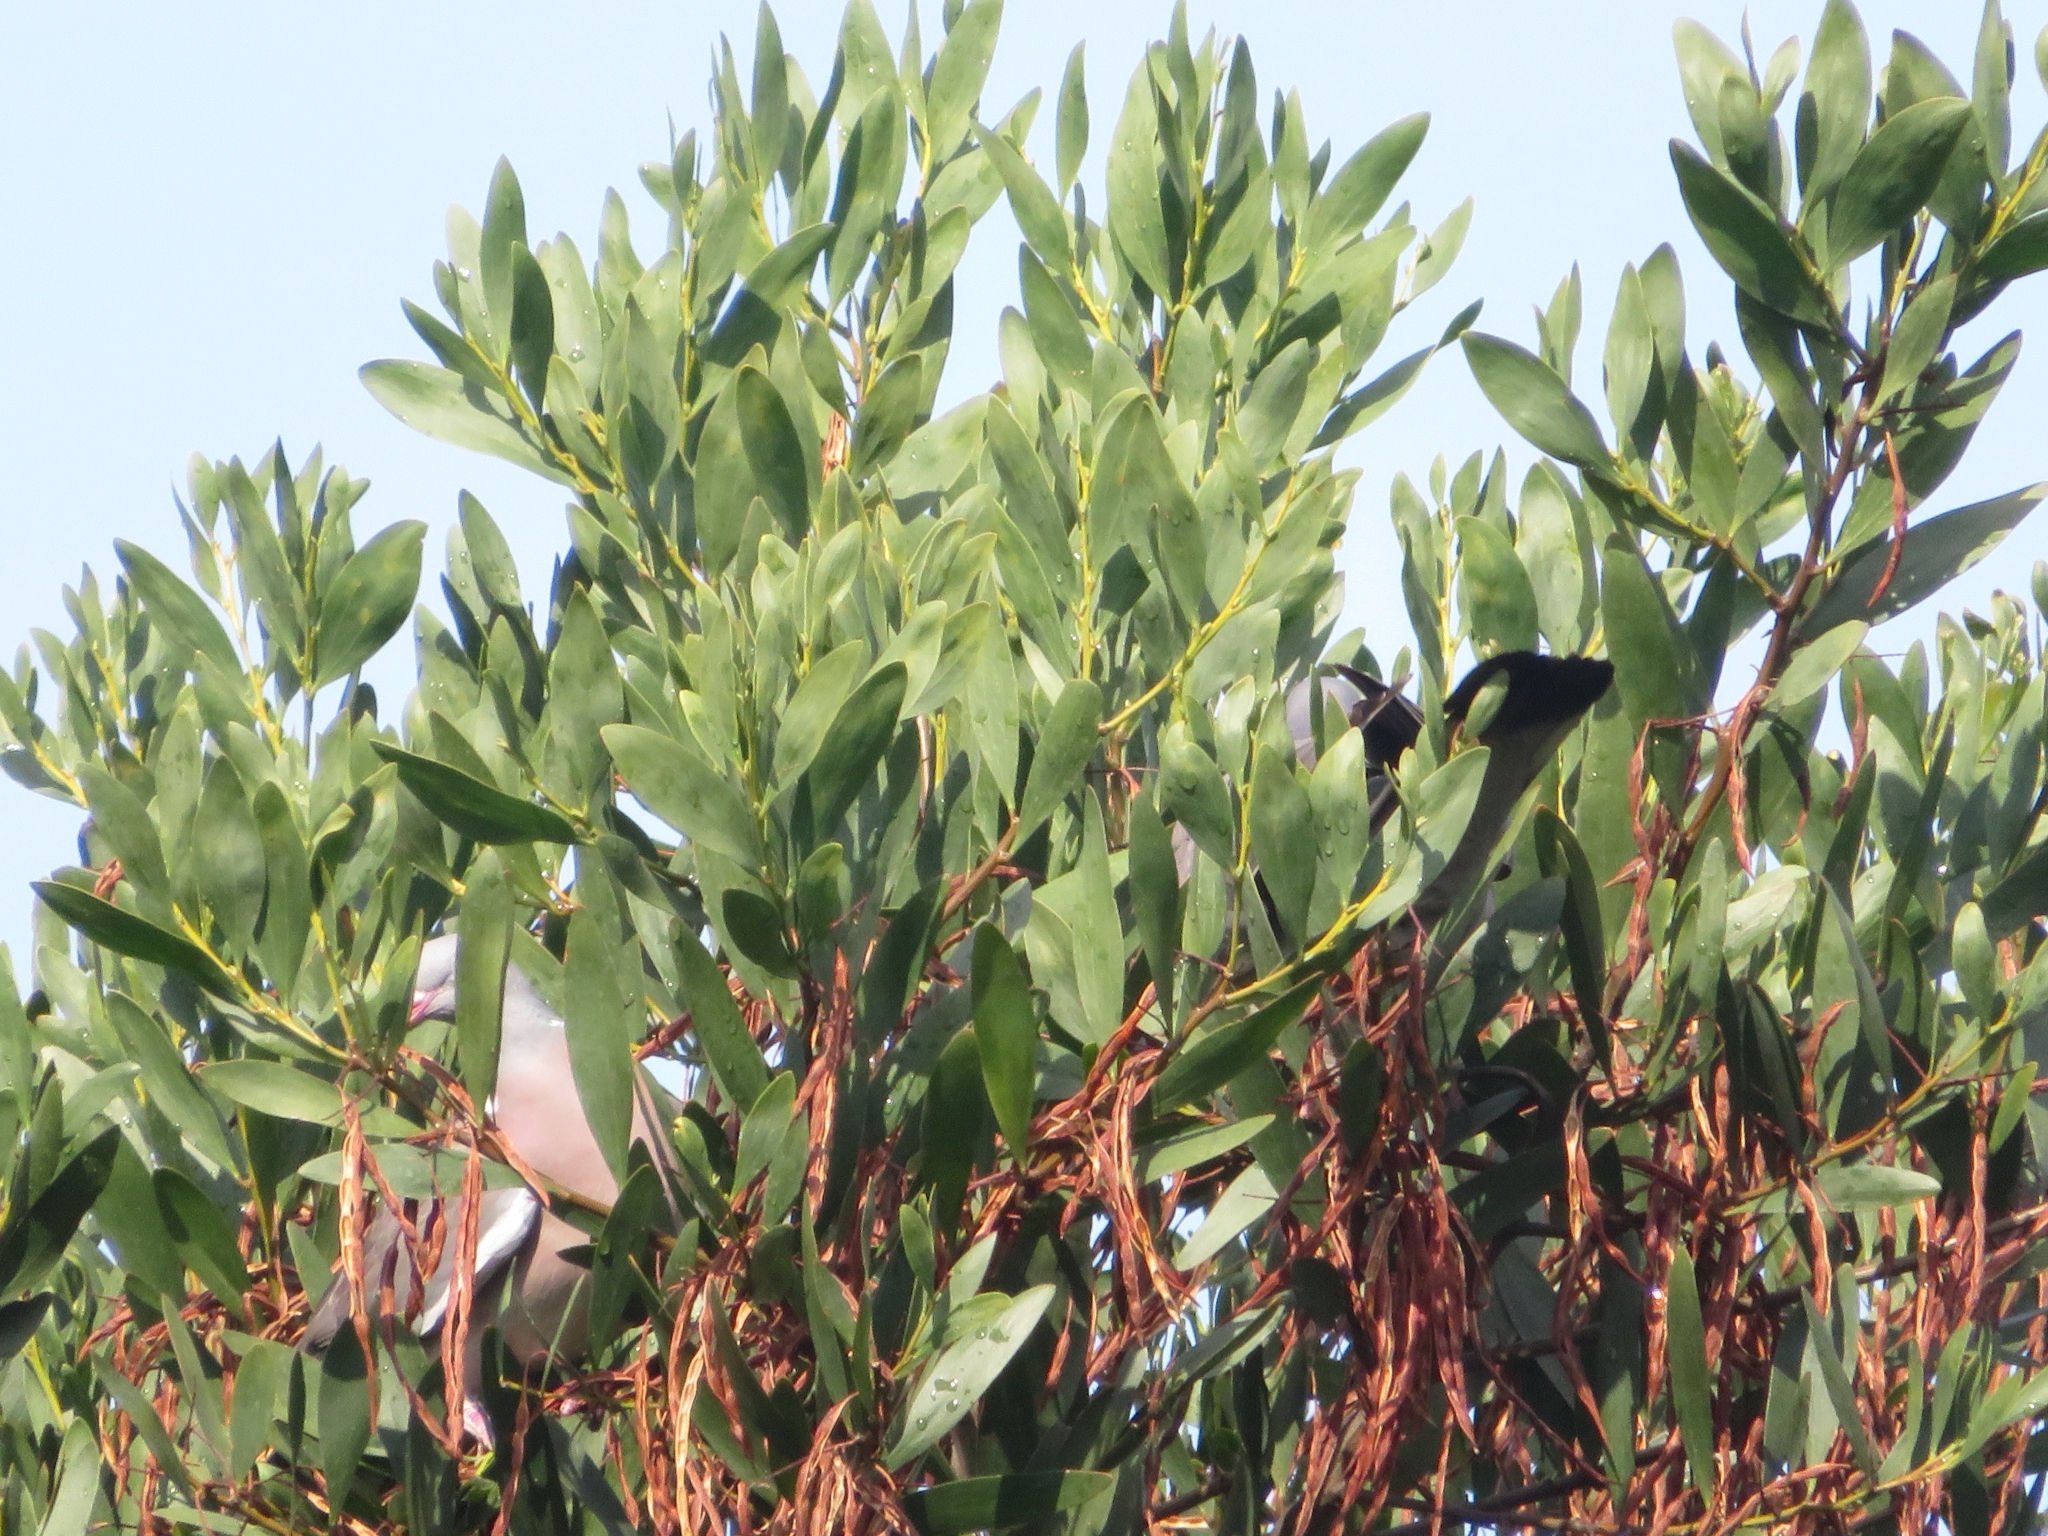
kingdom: Animalia
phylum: Chordata
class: Aves
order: Columbiformes
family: Columbidae
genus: Columba
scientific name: Columba palumbus
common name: Common wood pigeon
